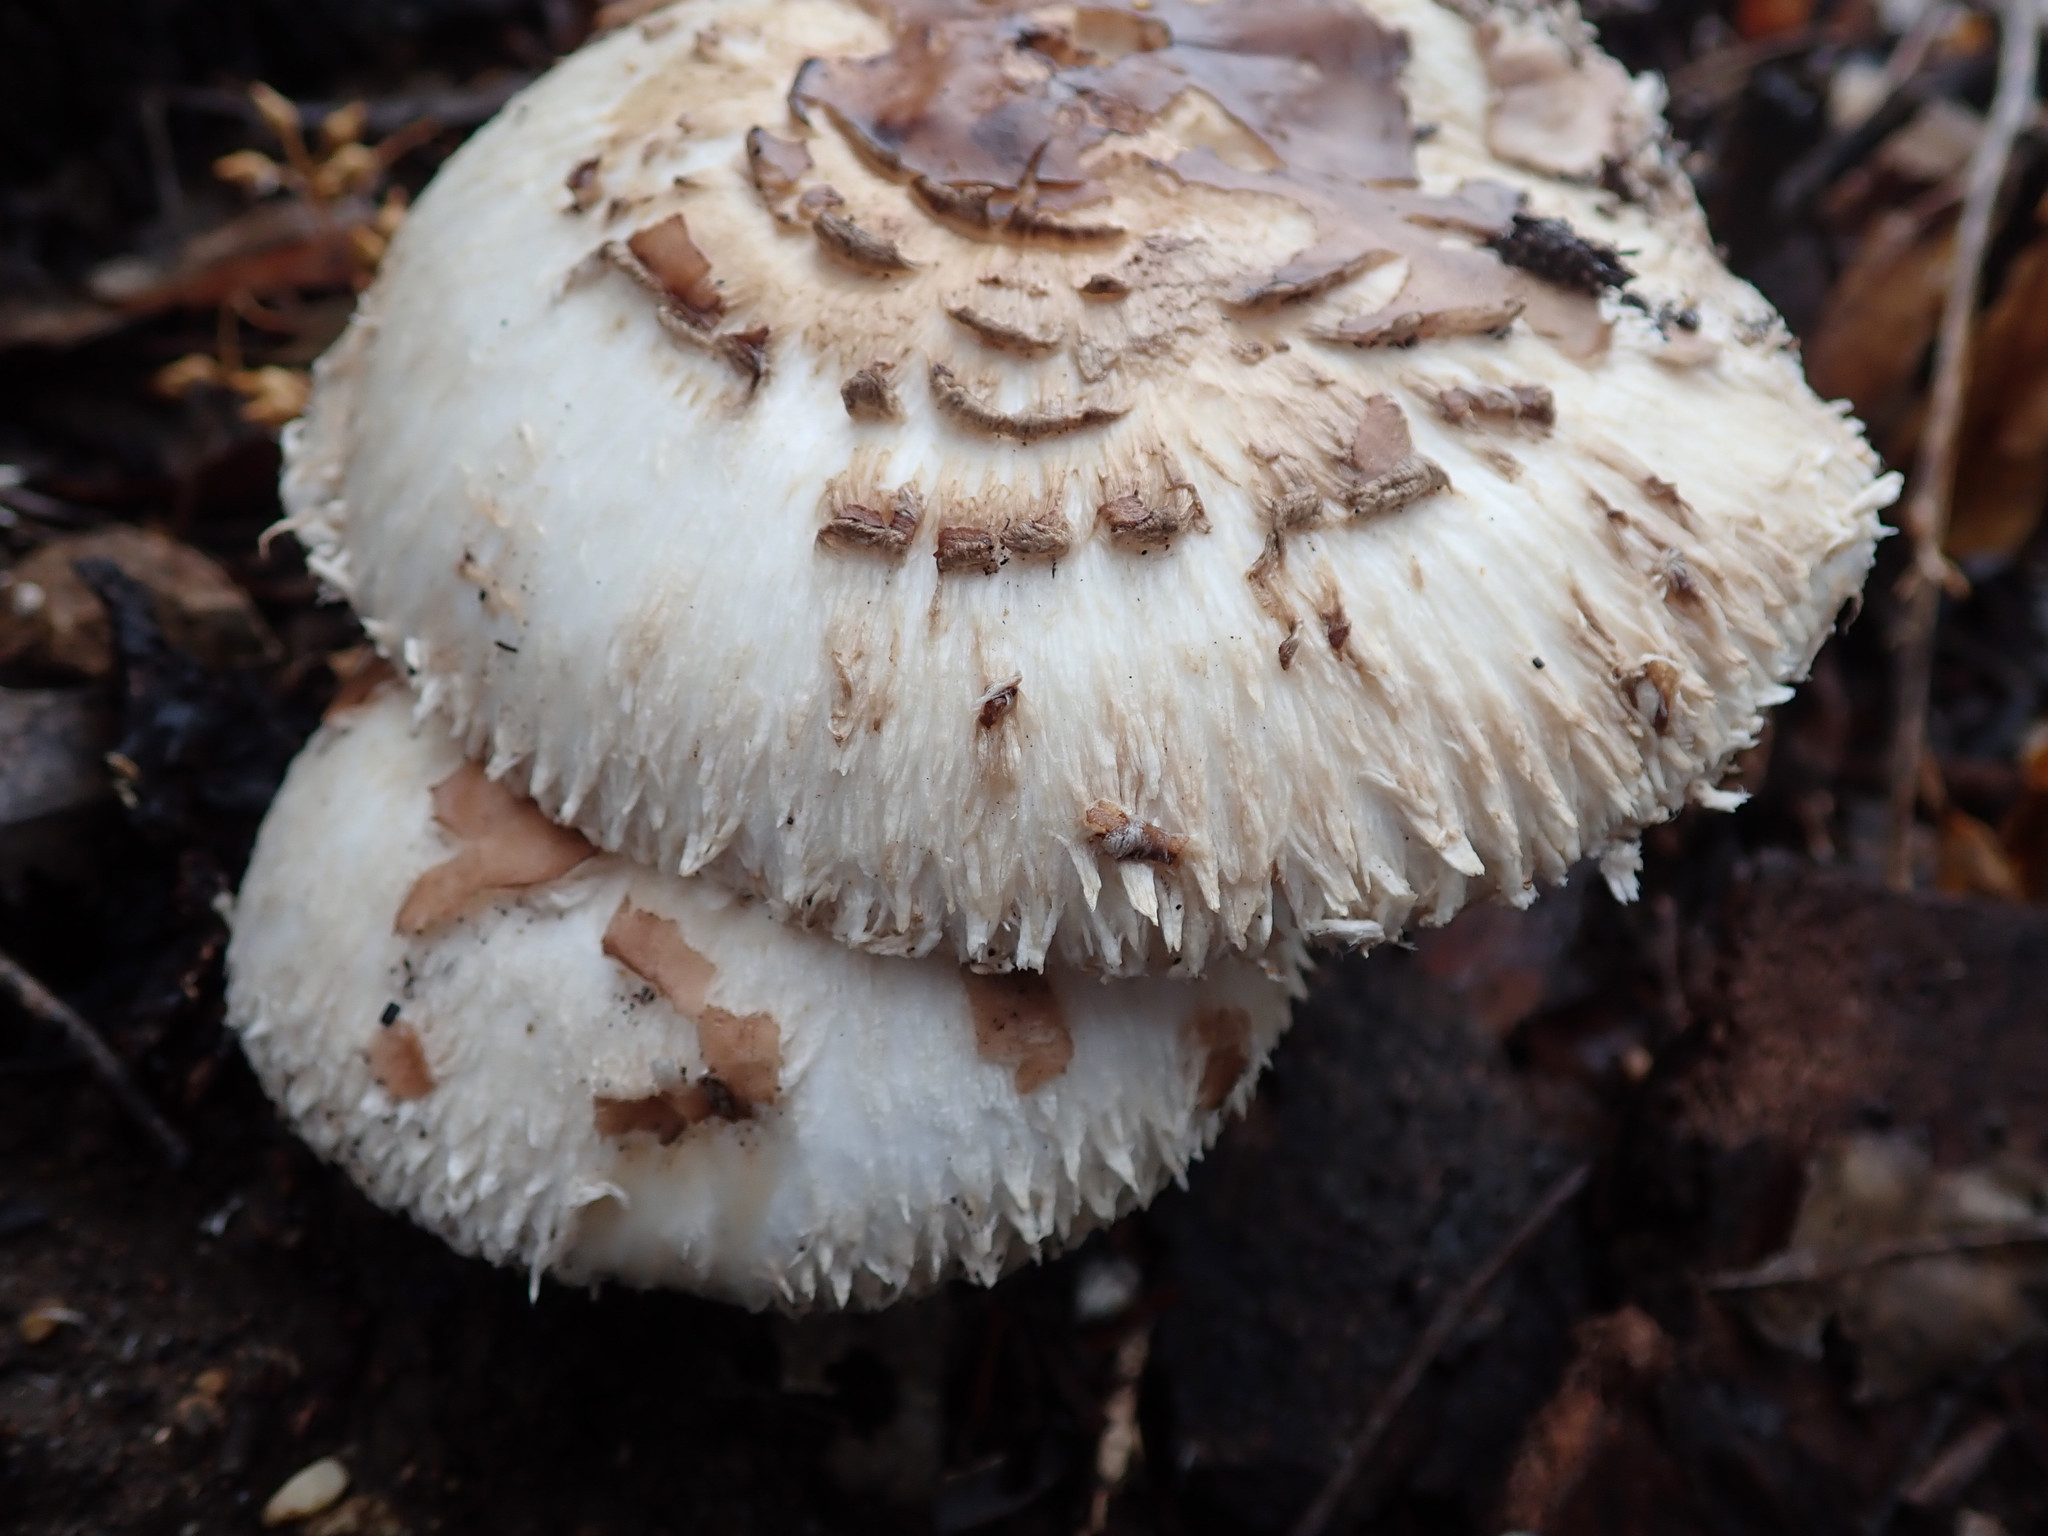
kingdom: Fungi
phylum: Basidiomycota
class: Agaricomycetes
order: Agaricales
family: Agaricaceae
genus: Chlorophyllum
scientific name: Chlorophyllum brunneum
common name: Brown parasol
